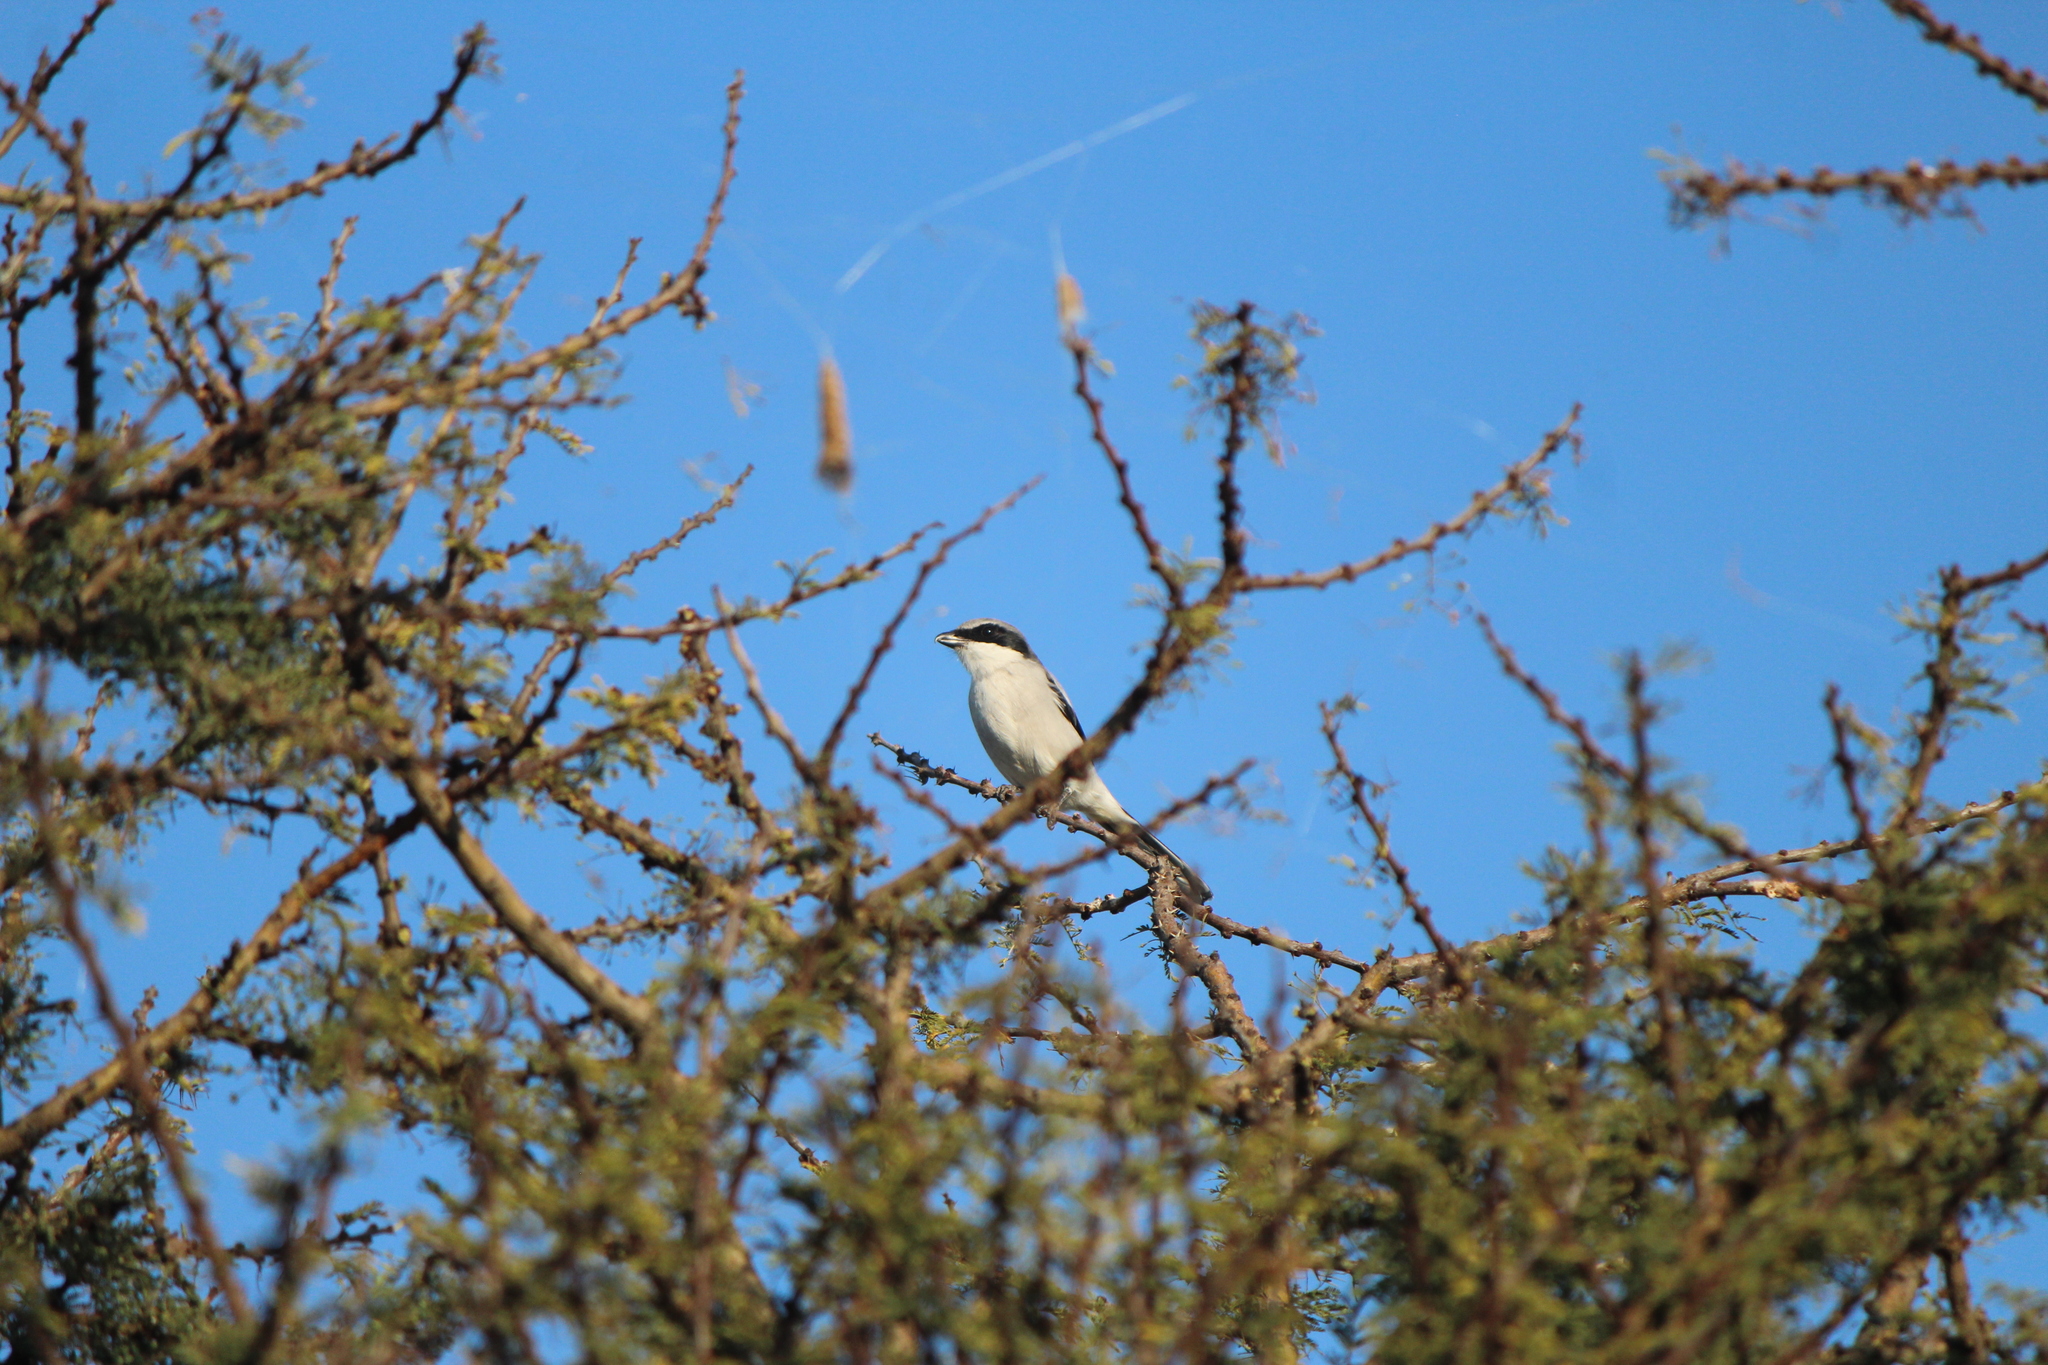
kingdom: Animalia
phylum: Chordata
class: Aves
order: Passeriformes
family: Laniidae
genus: Lanius
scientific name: Lanius ludovicianus
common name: Loggerhead shrike
